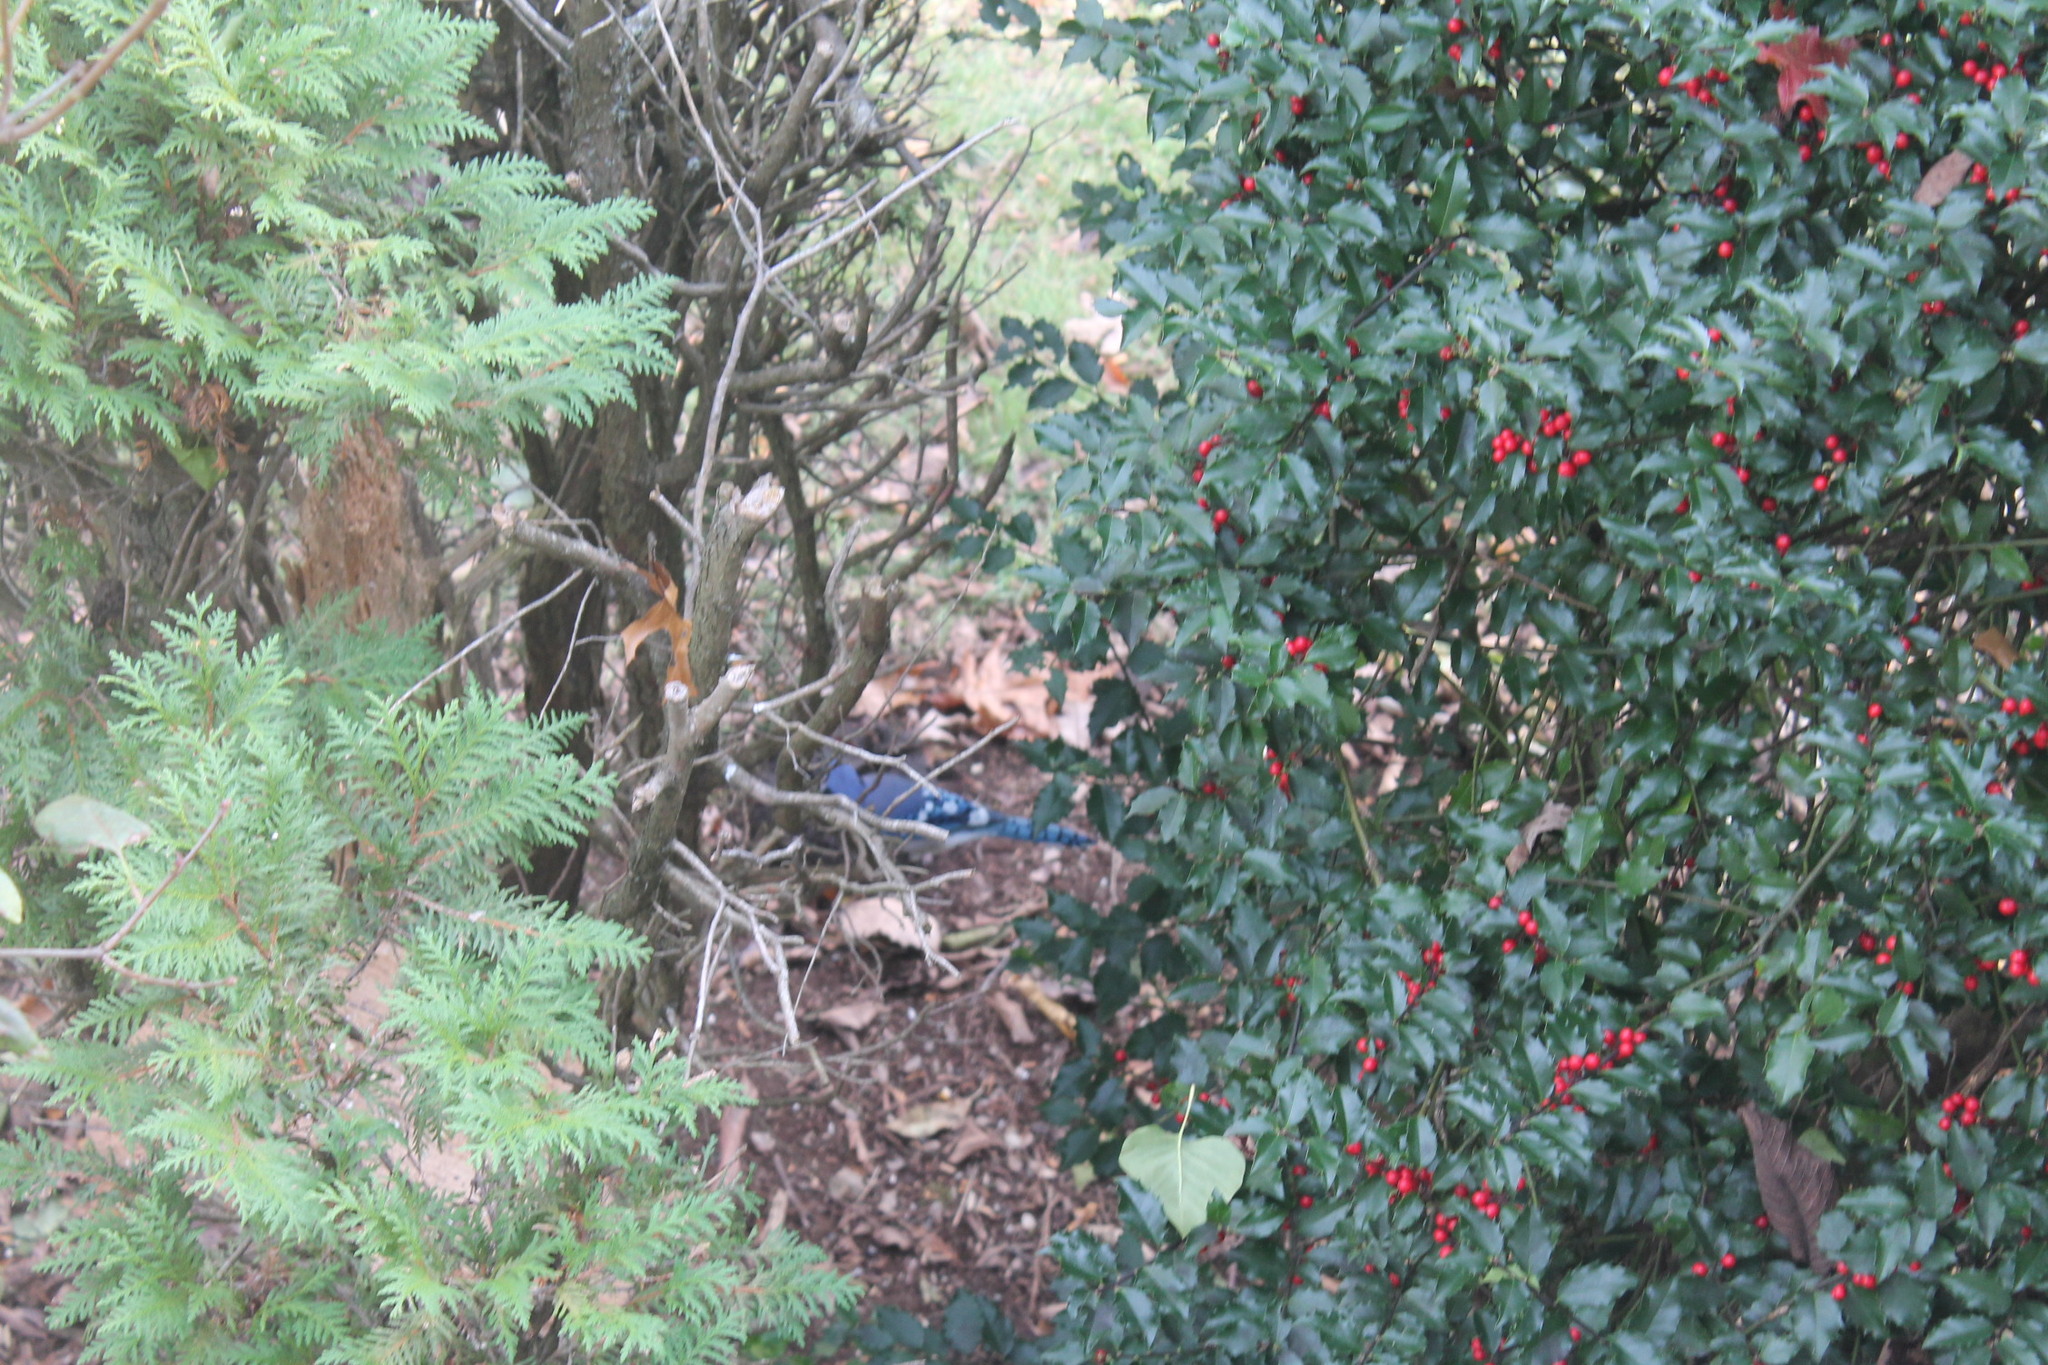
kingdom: Animalia
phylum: Chordata
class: Aves
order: Passeriformes
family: Corvidae
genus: Cyanocitta
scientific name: Cyanocitta cristata
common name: Blue jay
